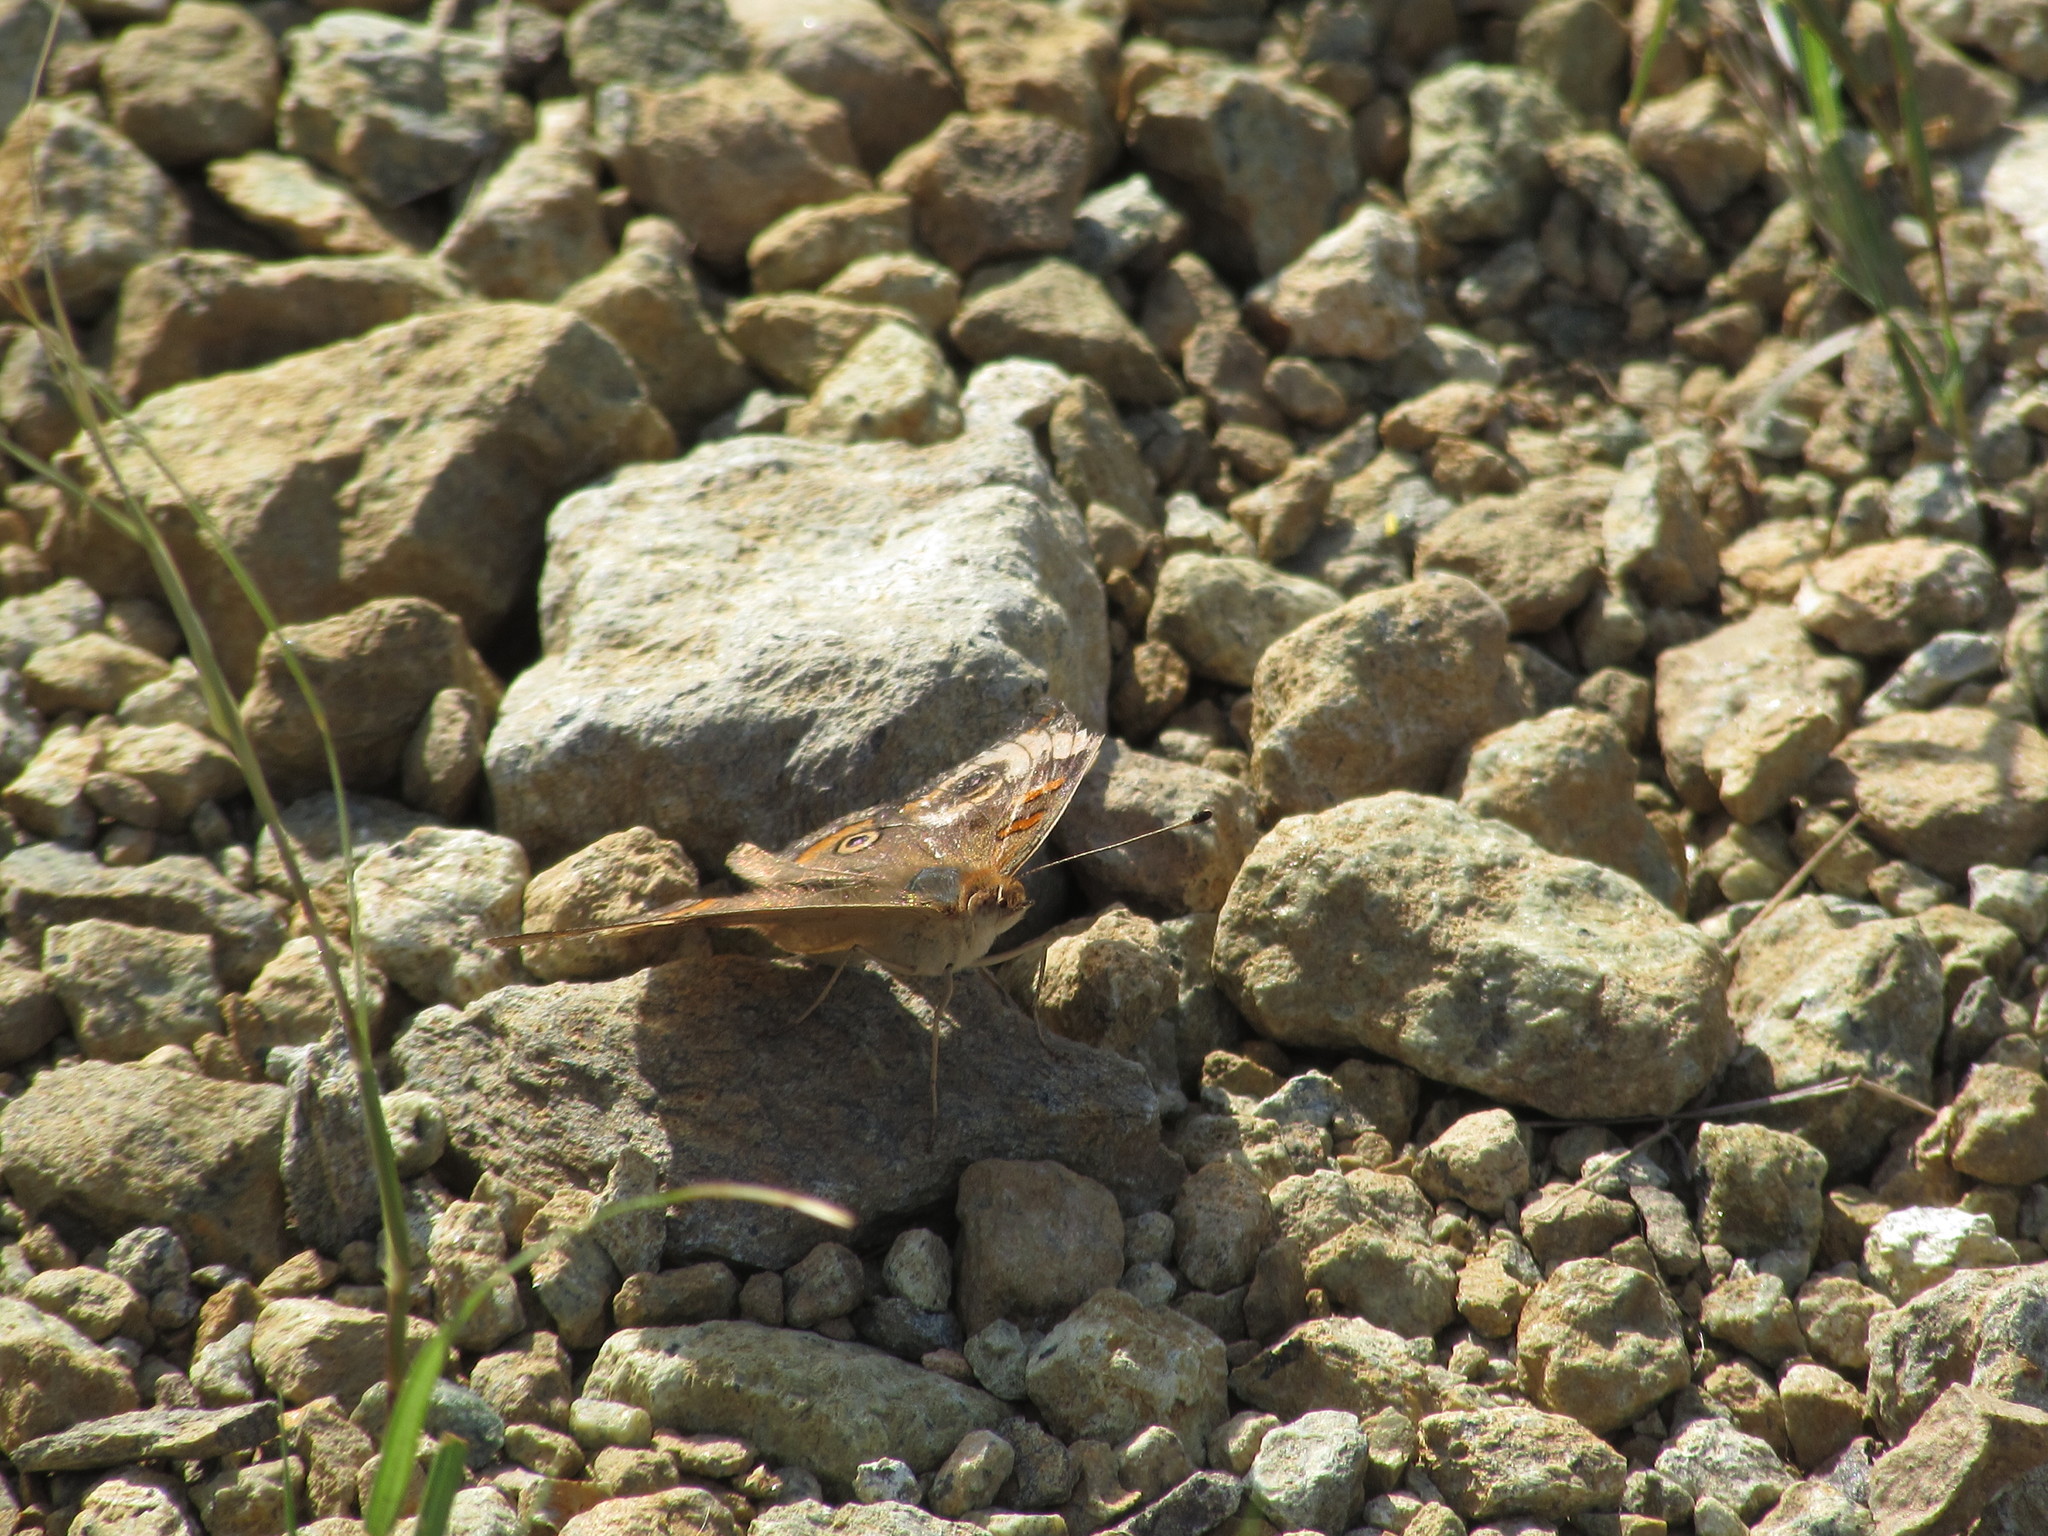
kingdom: Animalia
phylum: Arthropoda
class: Insecta
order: Lepidoptera
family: Nymphalidae
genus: Junonia
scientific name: Junonia coenia
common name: Common buckeye
